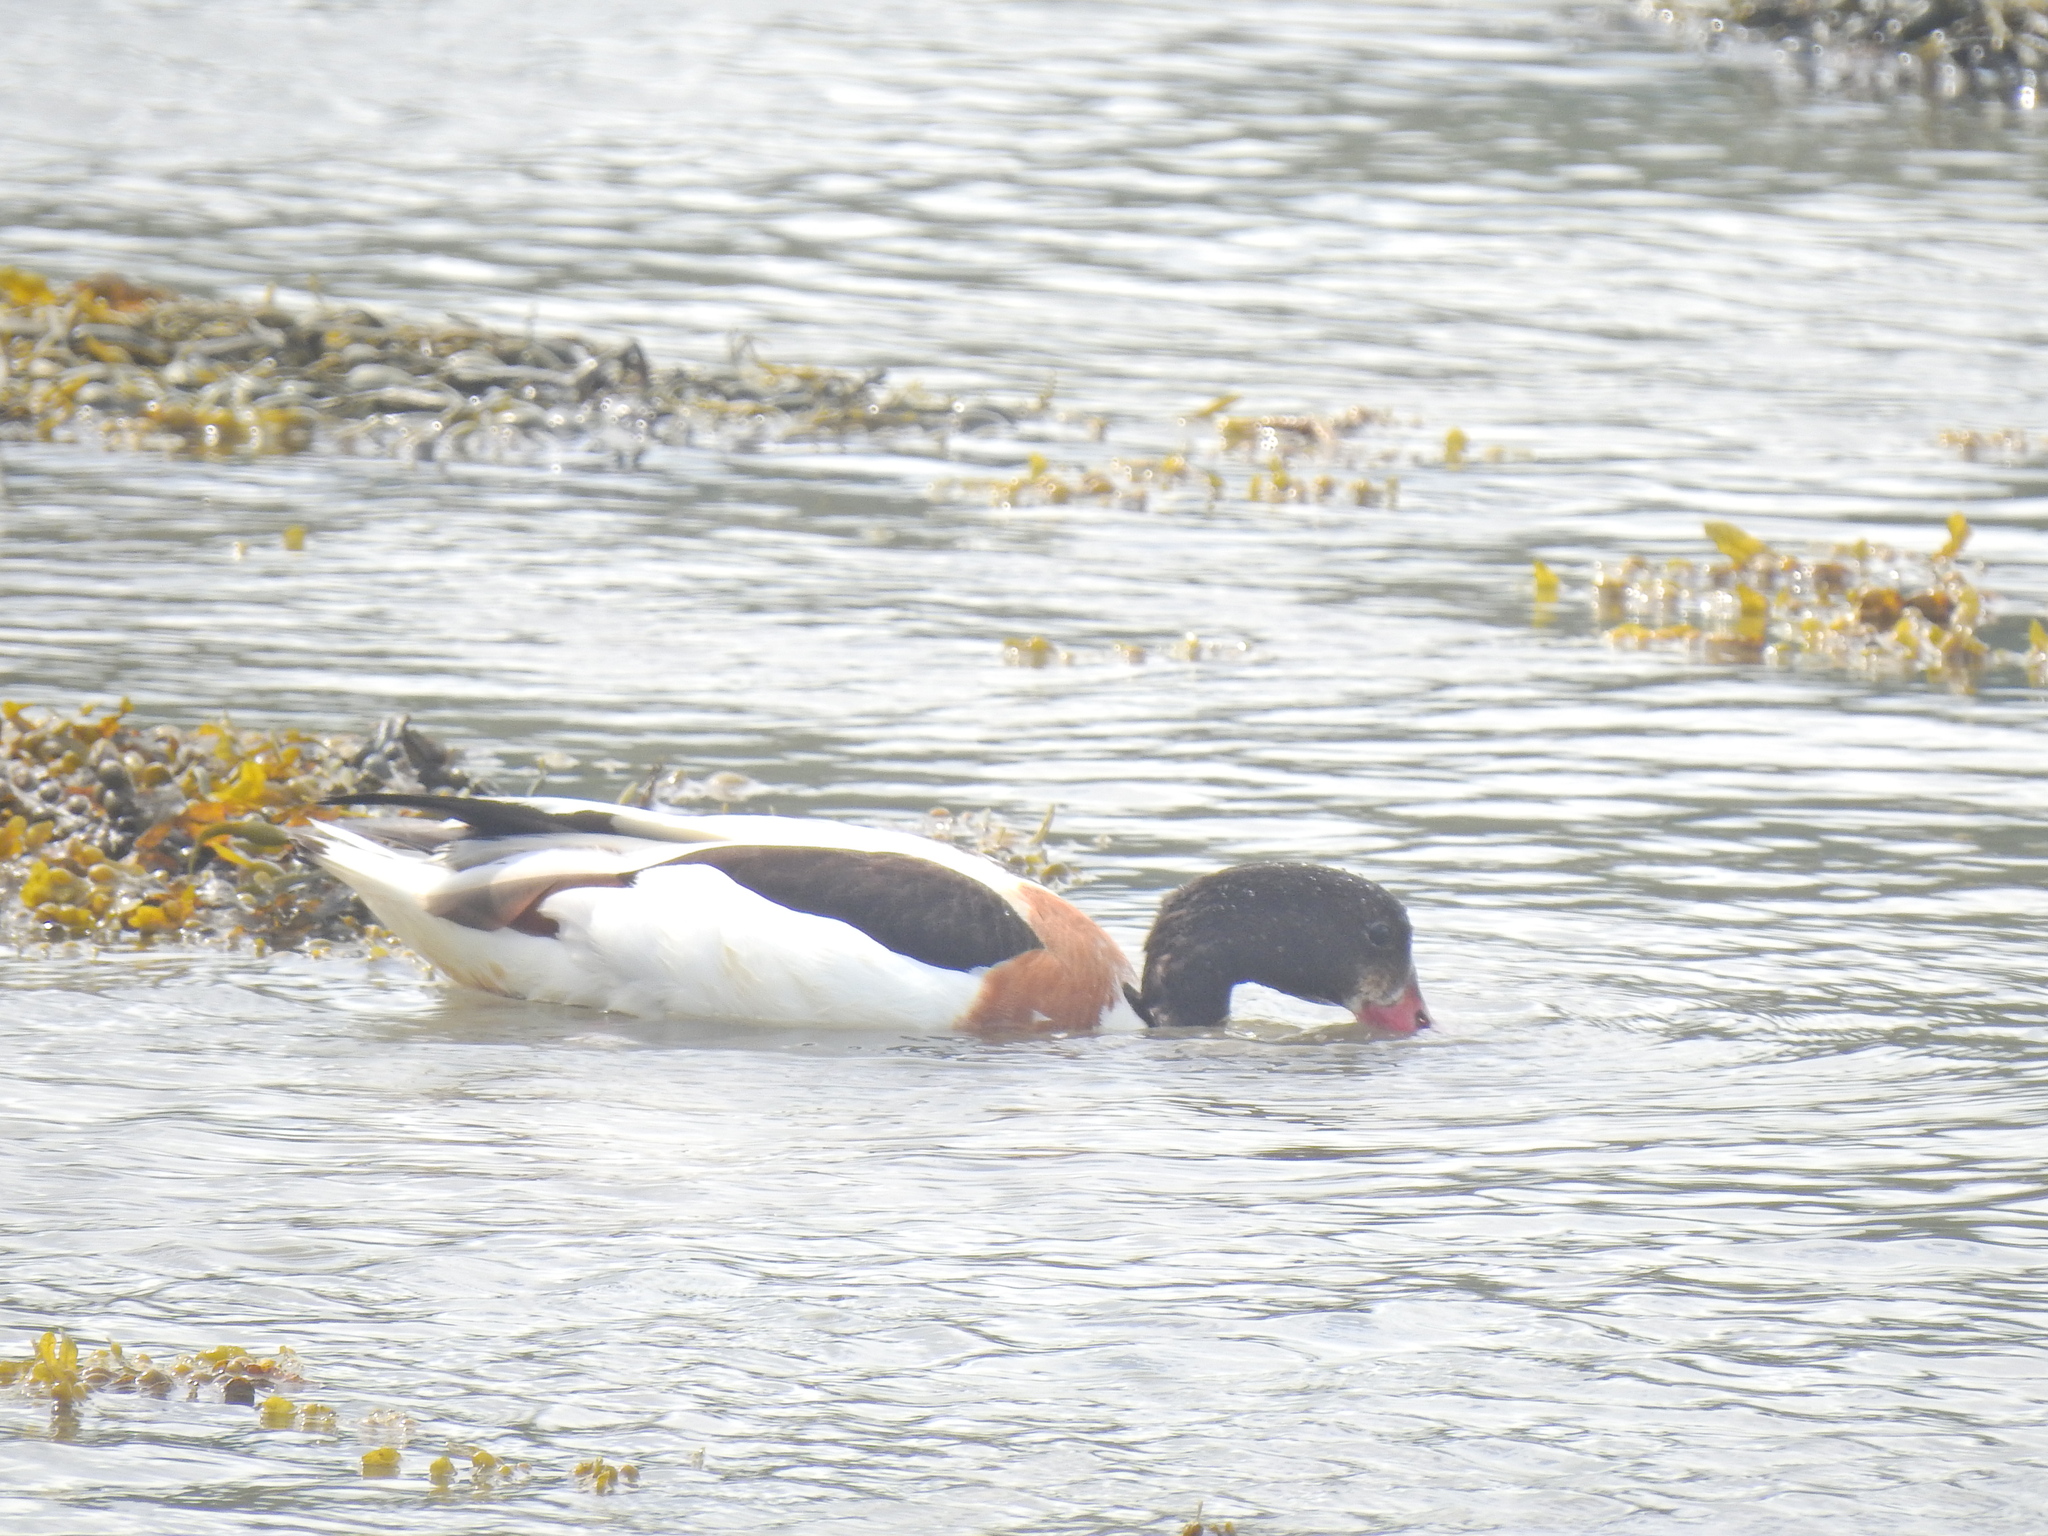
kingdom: Animalia
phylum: Chordata
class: Aves
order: Anseriformes
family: Anatidae
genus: Tadorna
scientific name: Tadorna tadorna
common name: Common shelduck
